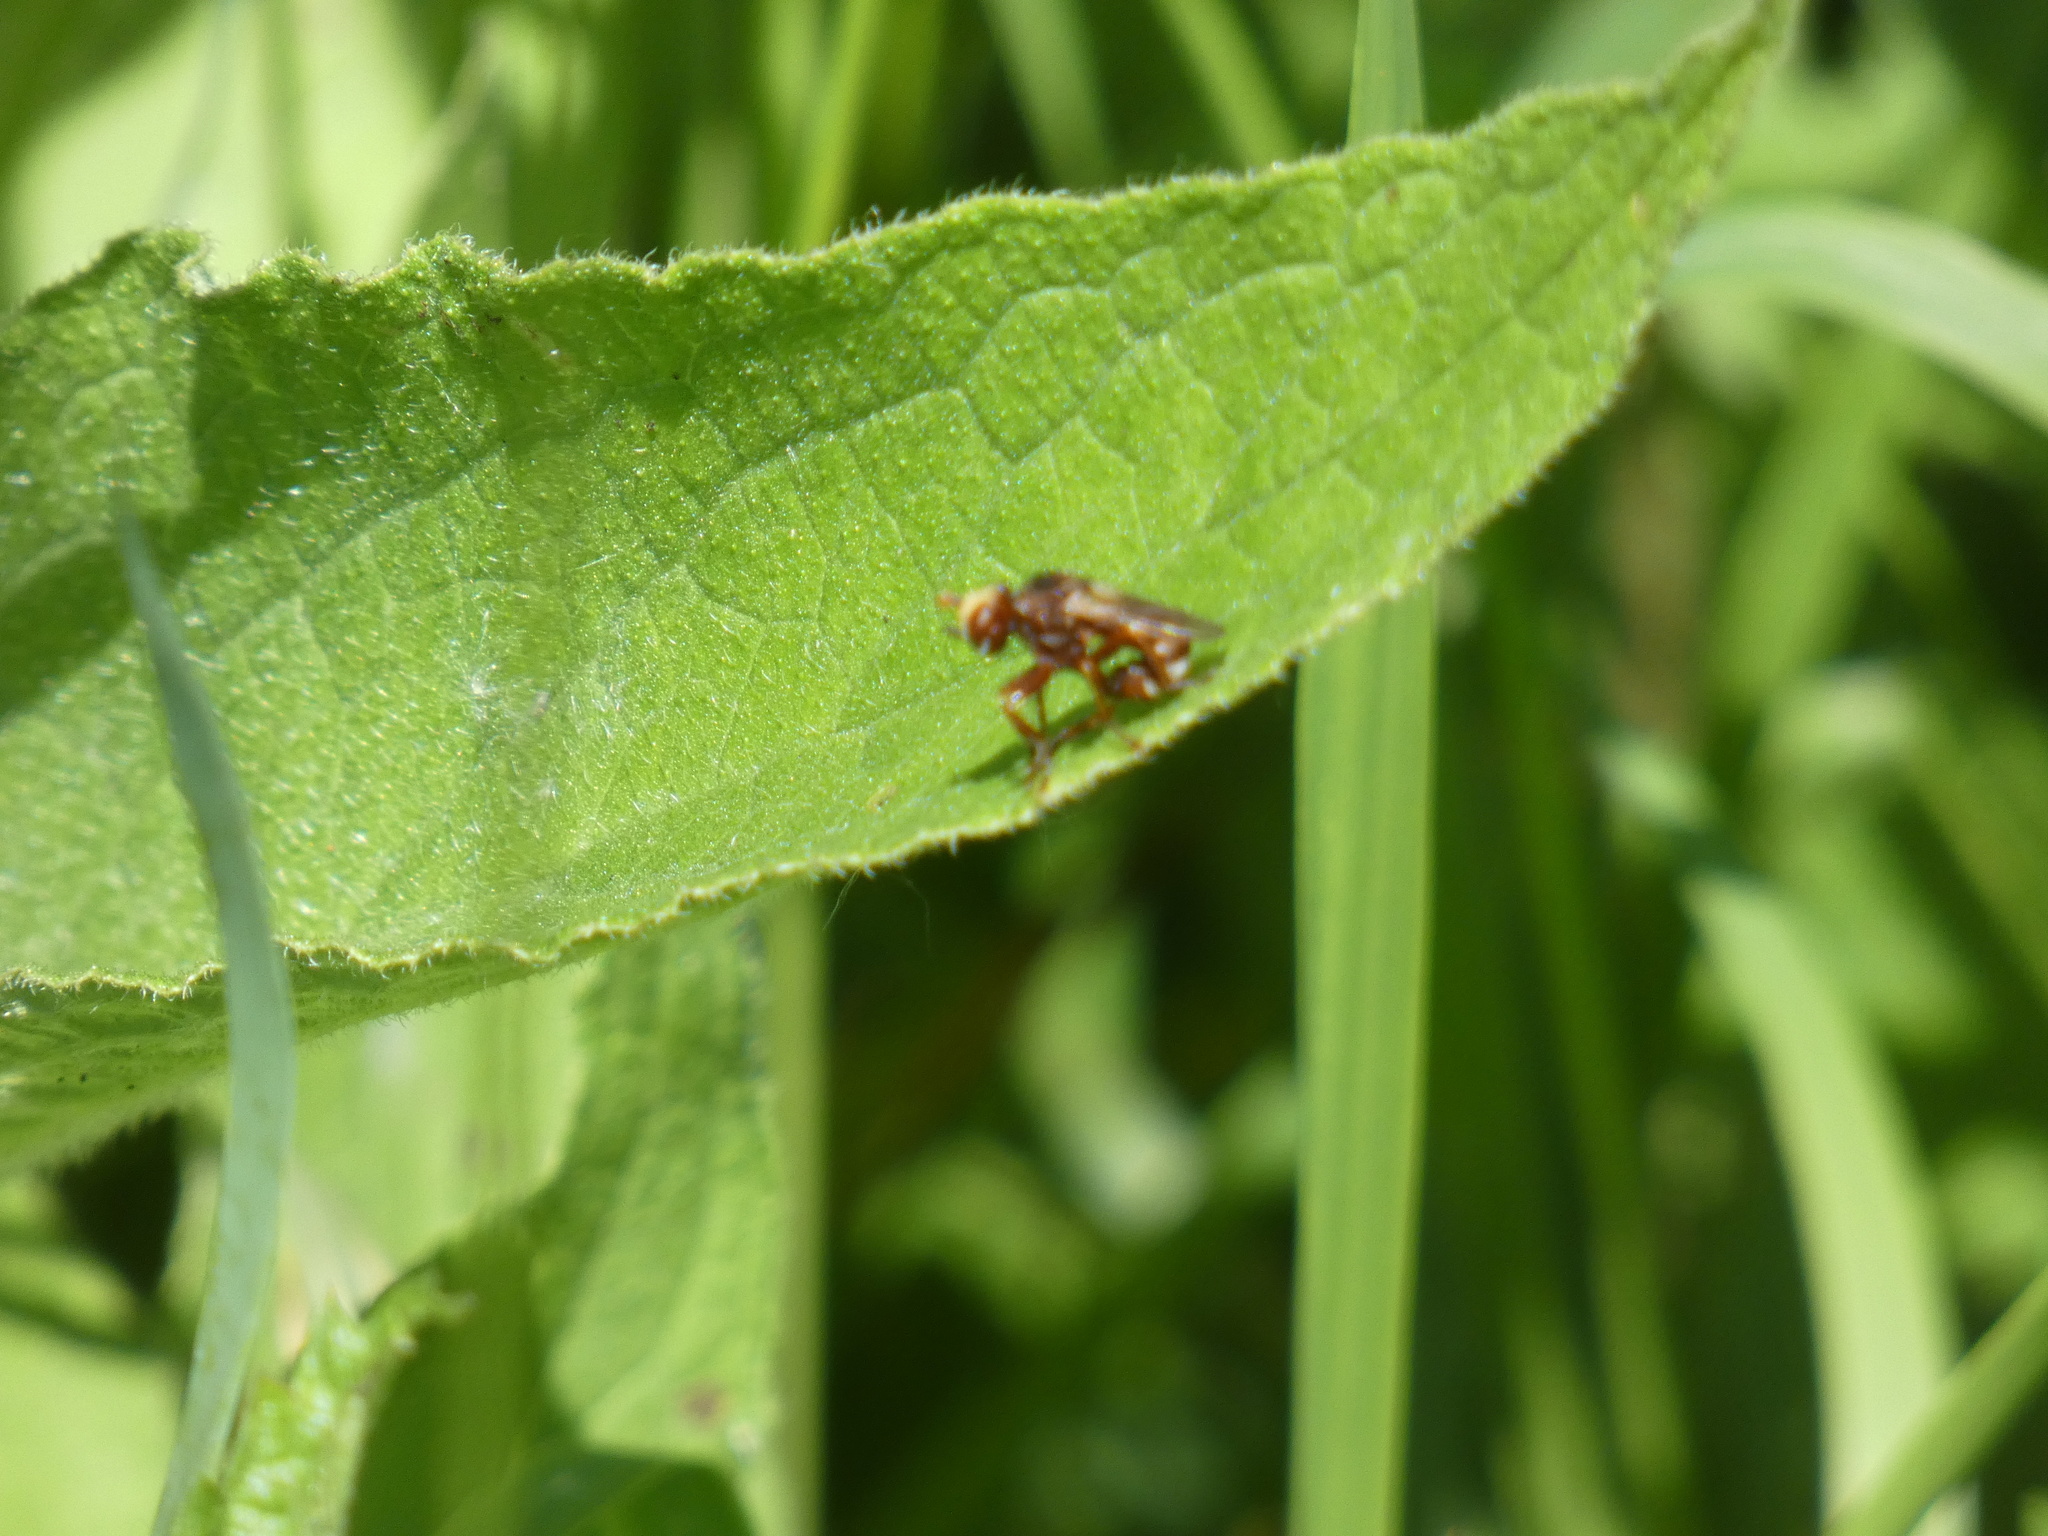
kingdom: Animalia
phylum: Arthropoda
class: Insecta
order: Diptera
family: Conopidae
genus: Sicus
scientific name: Sicus ferrugineus
